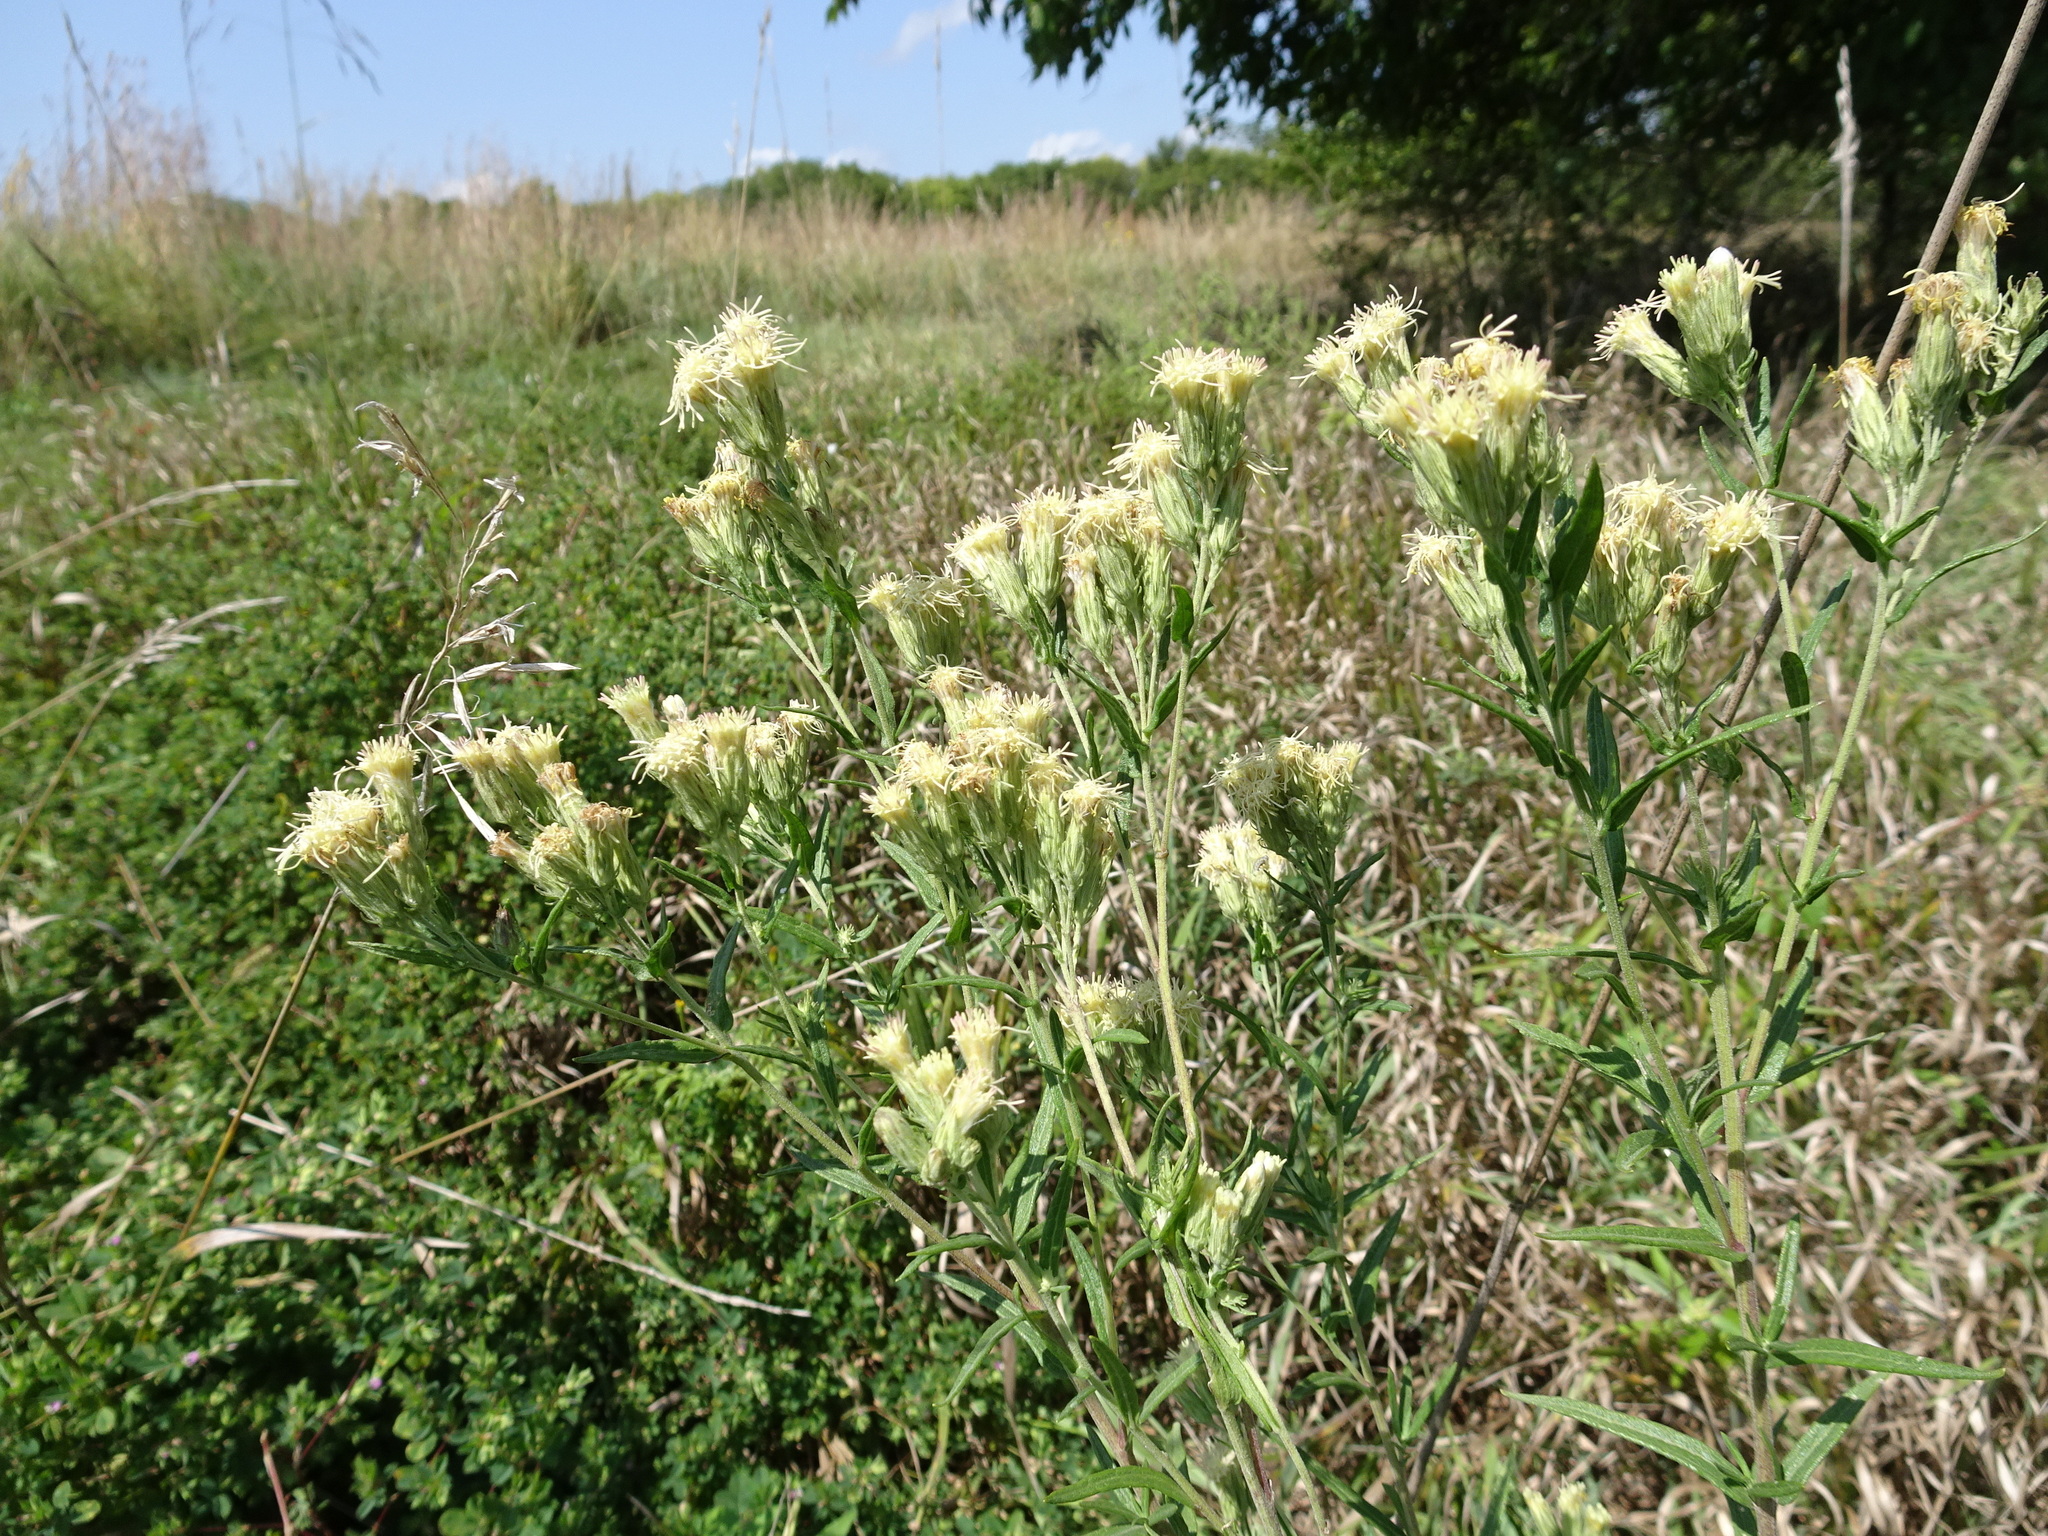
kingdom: Plantae
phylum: Tracheophyta
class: Magnoliopsida
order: Asterales
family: Asteraceae
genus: Brickellia
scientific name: Brickellia eupatorioides
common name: False boneset
